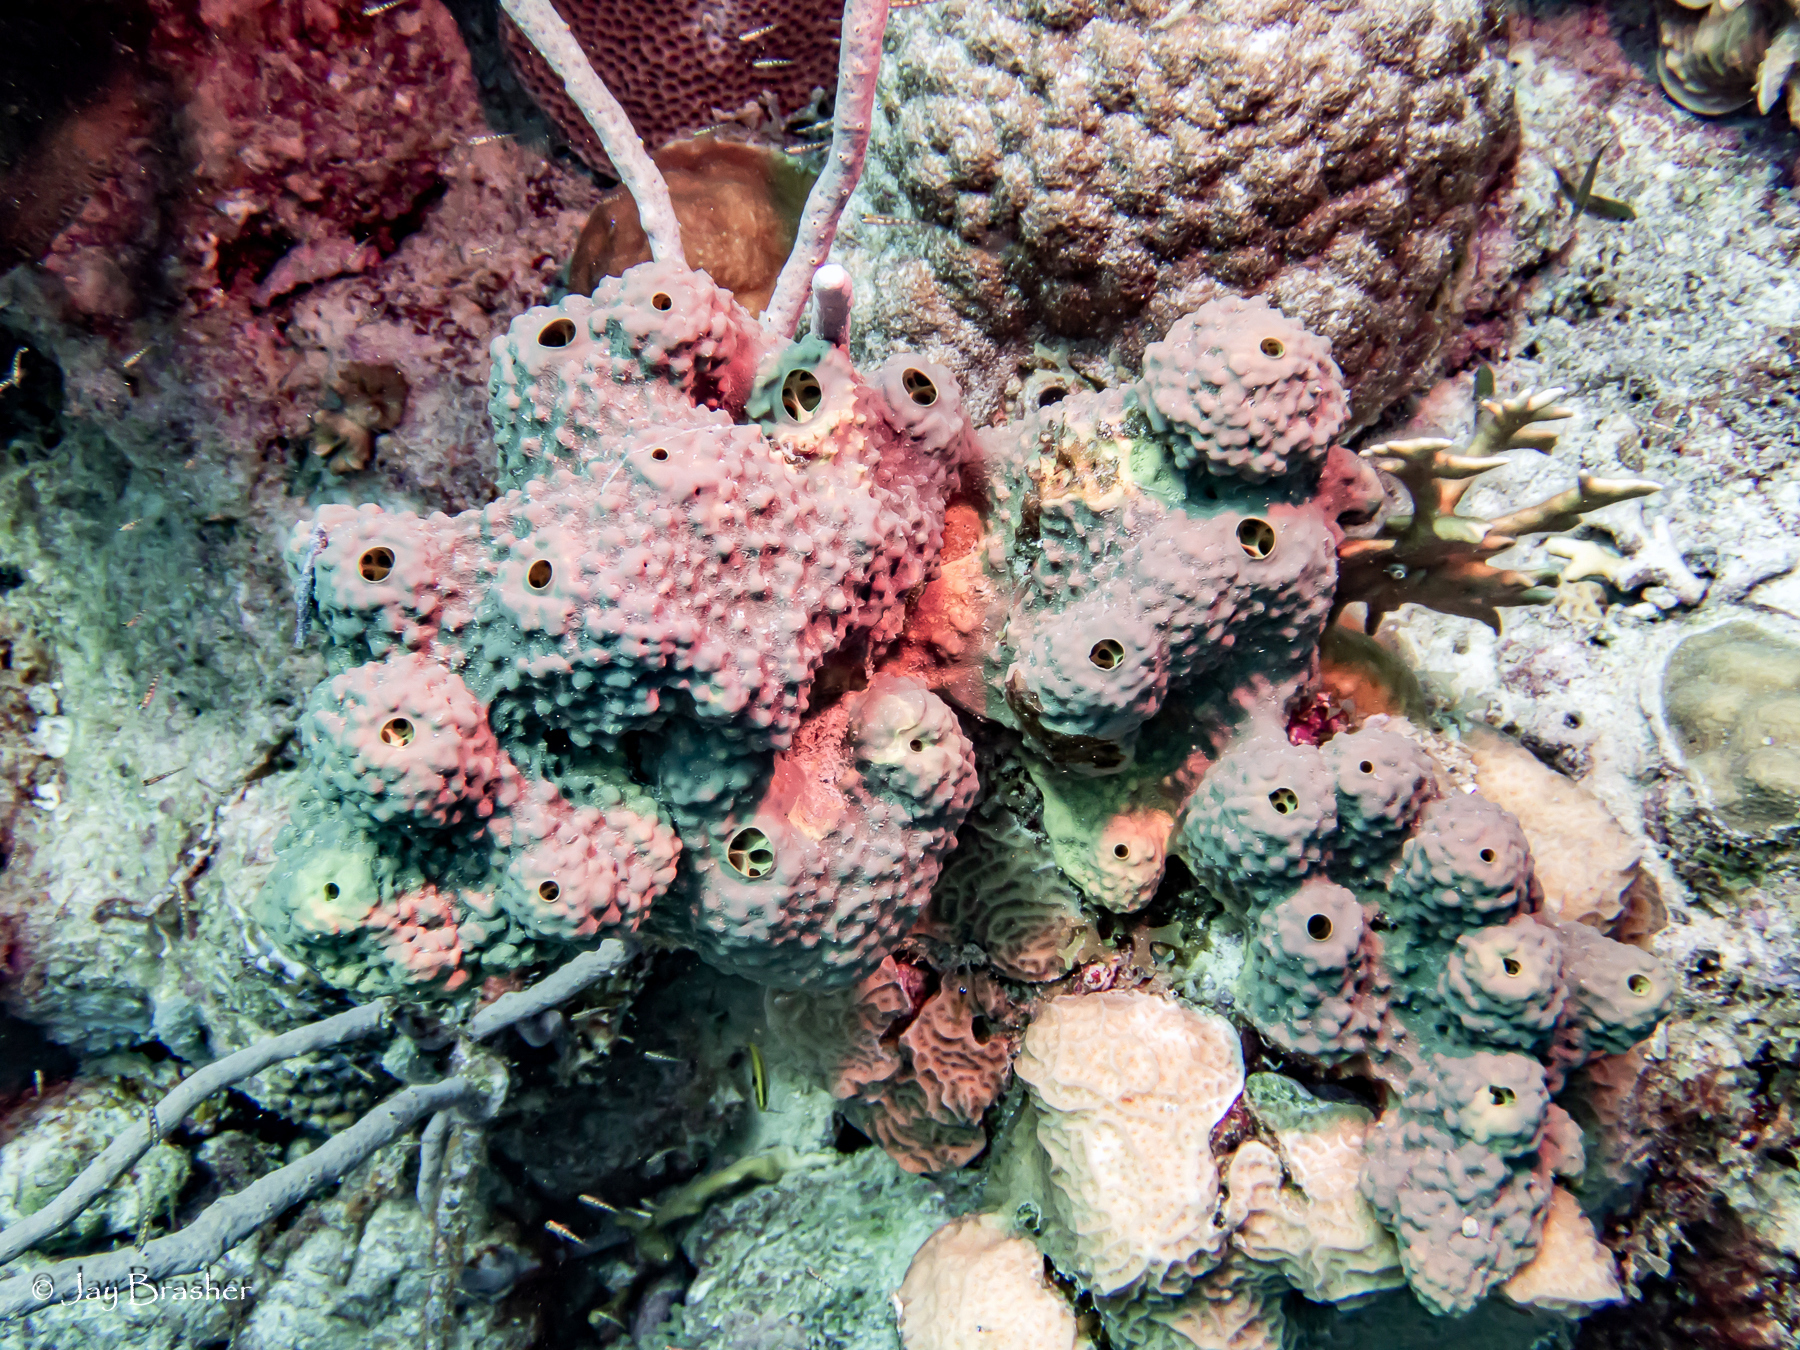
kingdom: Animalia
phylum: Porifera
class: Demospongiae
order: Verongiida
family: Aplysinidae
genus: Aiolochroia
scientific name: Aiolochroia crassa
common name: Branching tube sponge
